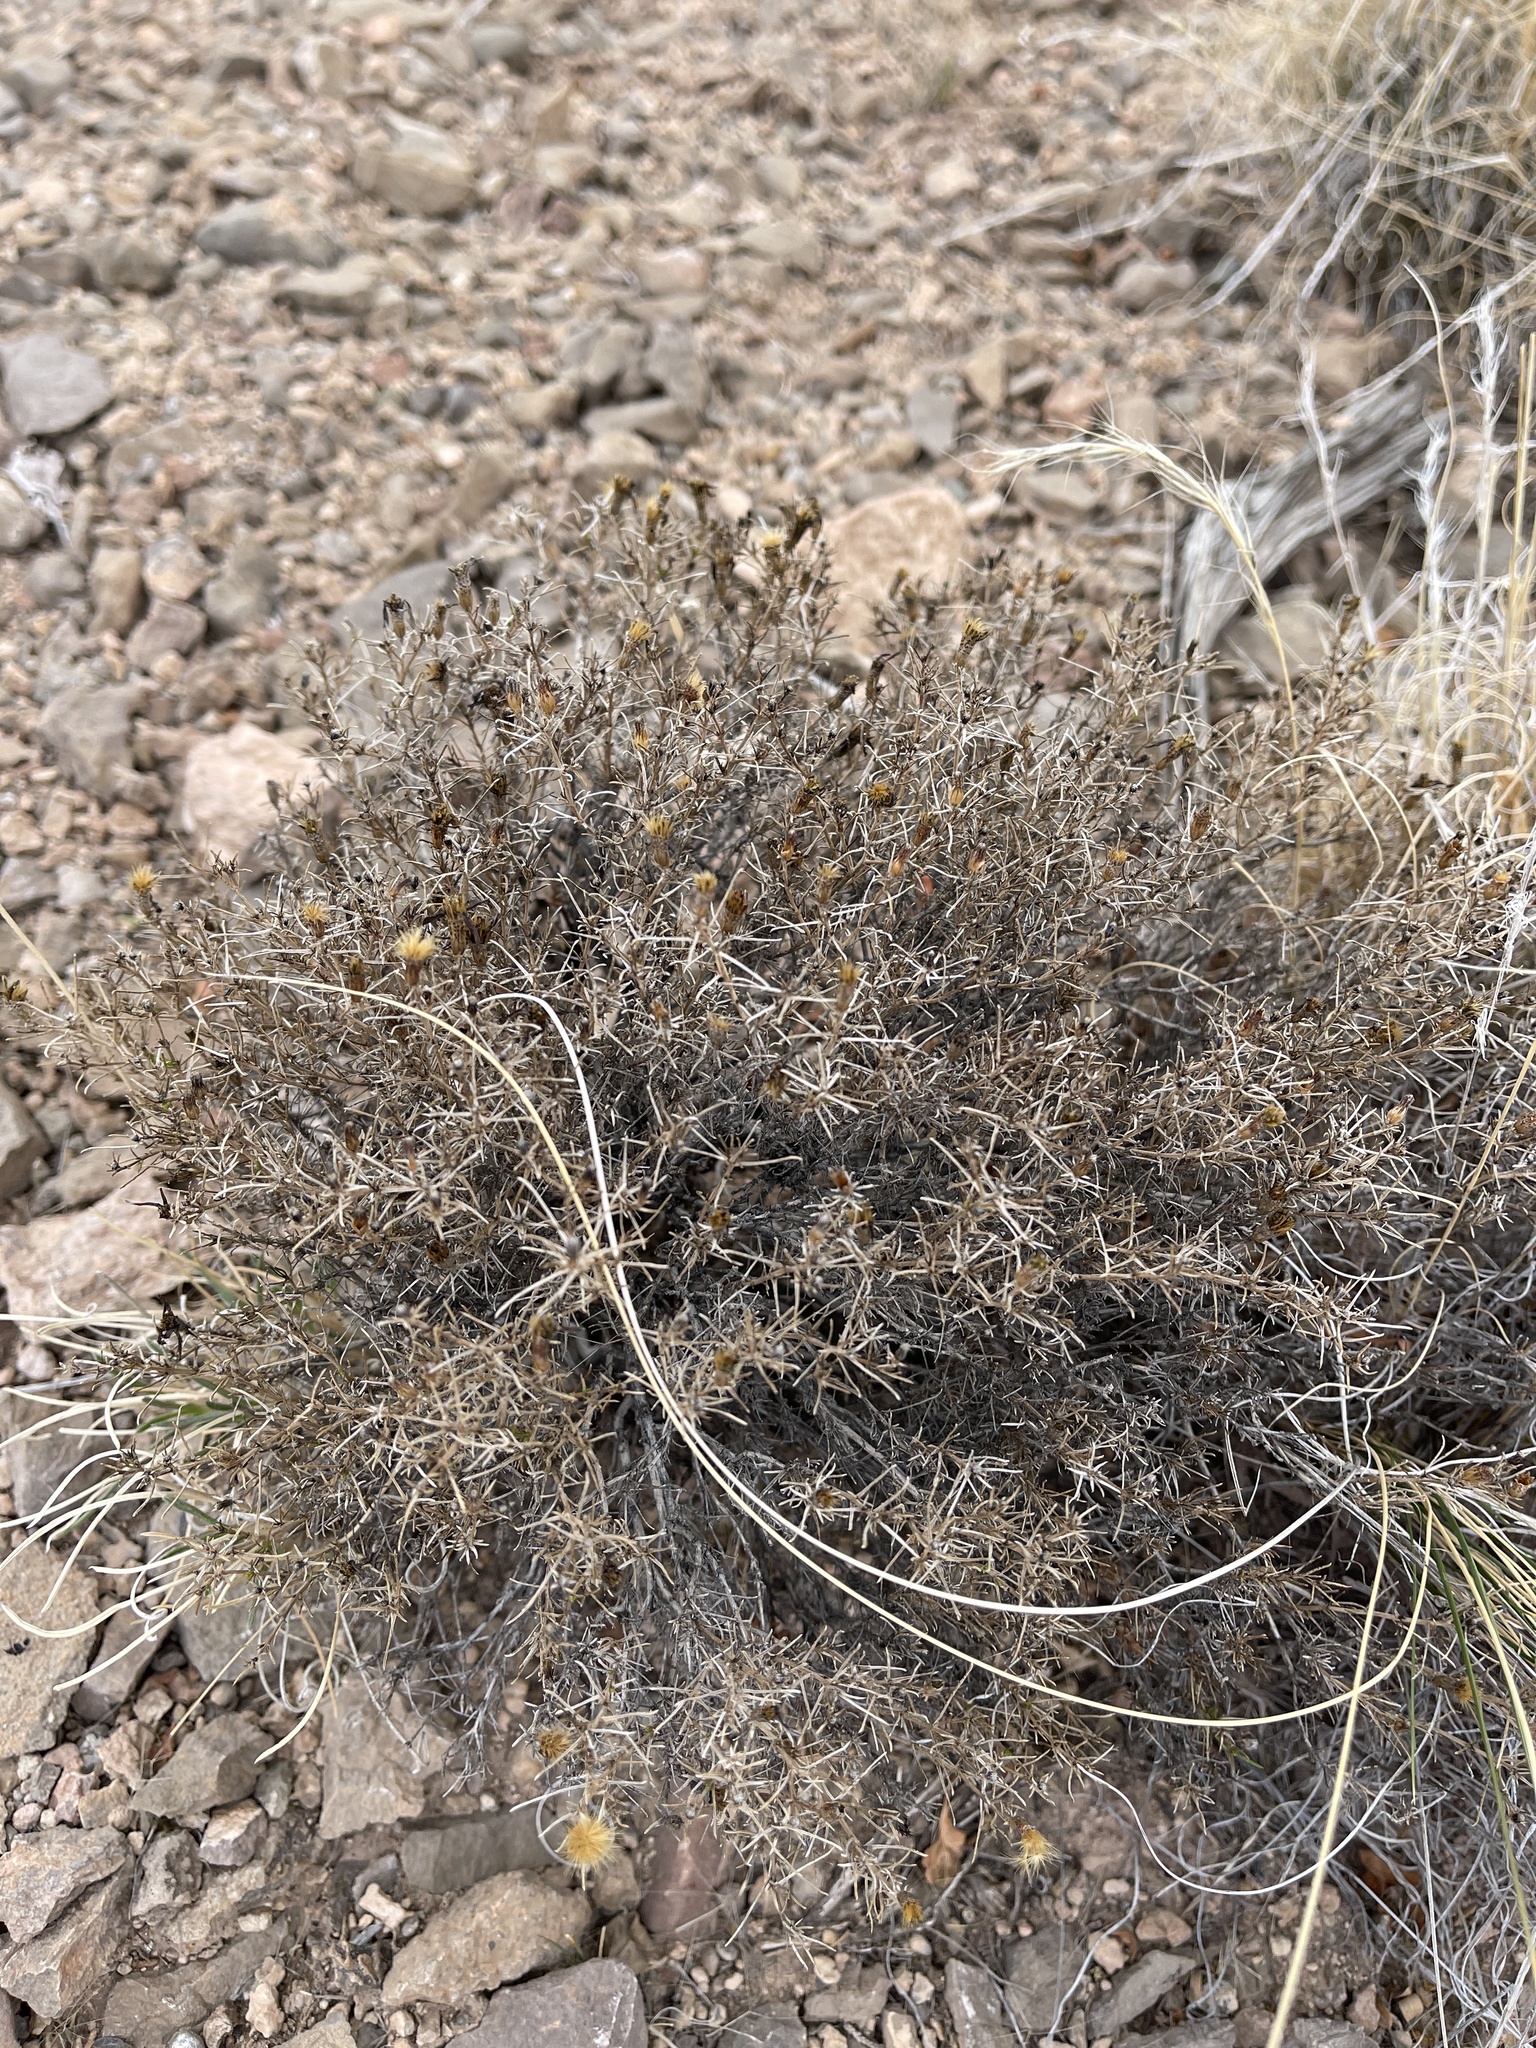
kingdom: Plantae
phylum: Tracheophyta
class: Magnoliopsida
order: Asterales
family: Asteraceae
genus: Thymophylla
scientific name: Thymophylla acerosa
